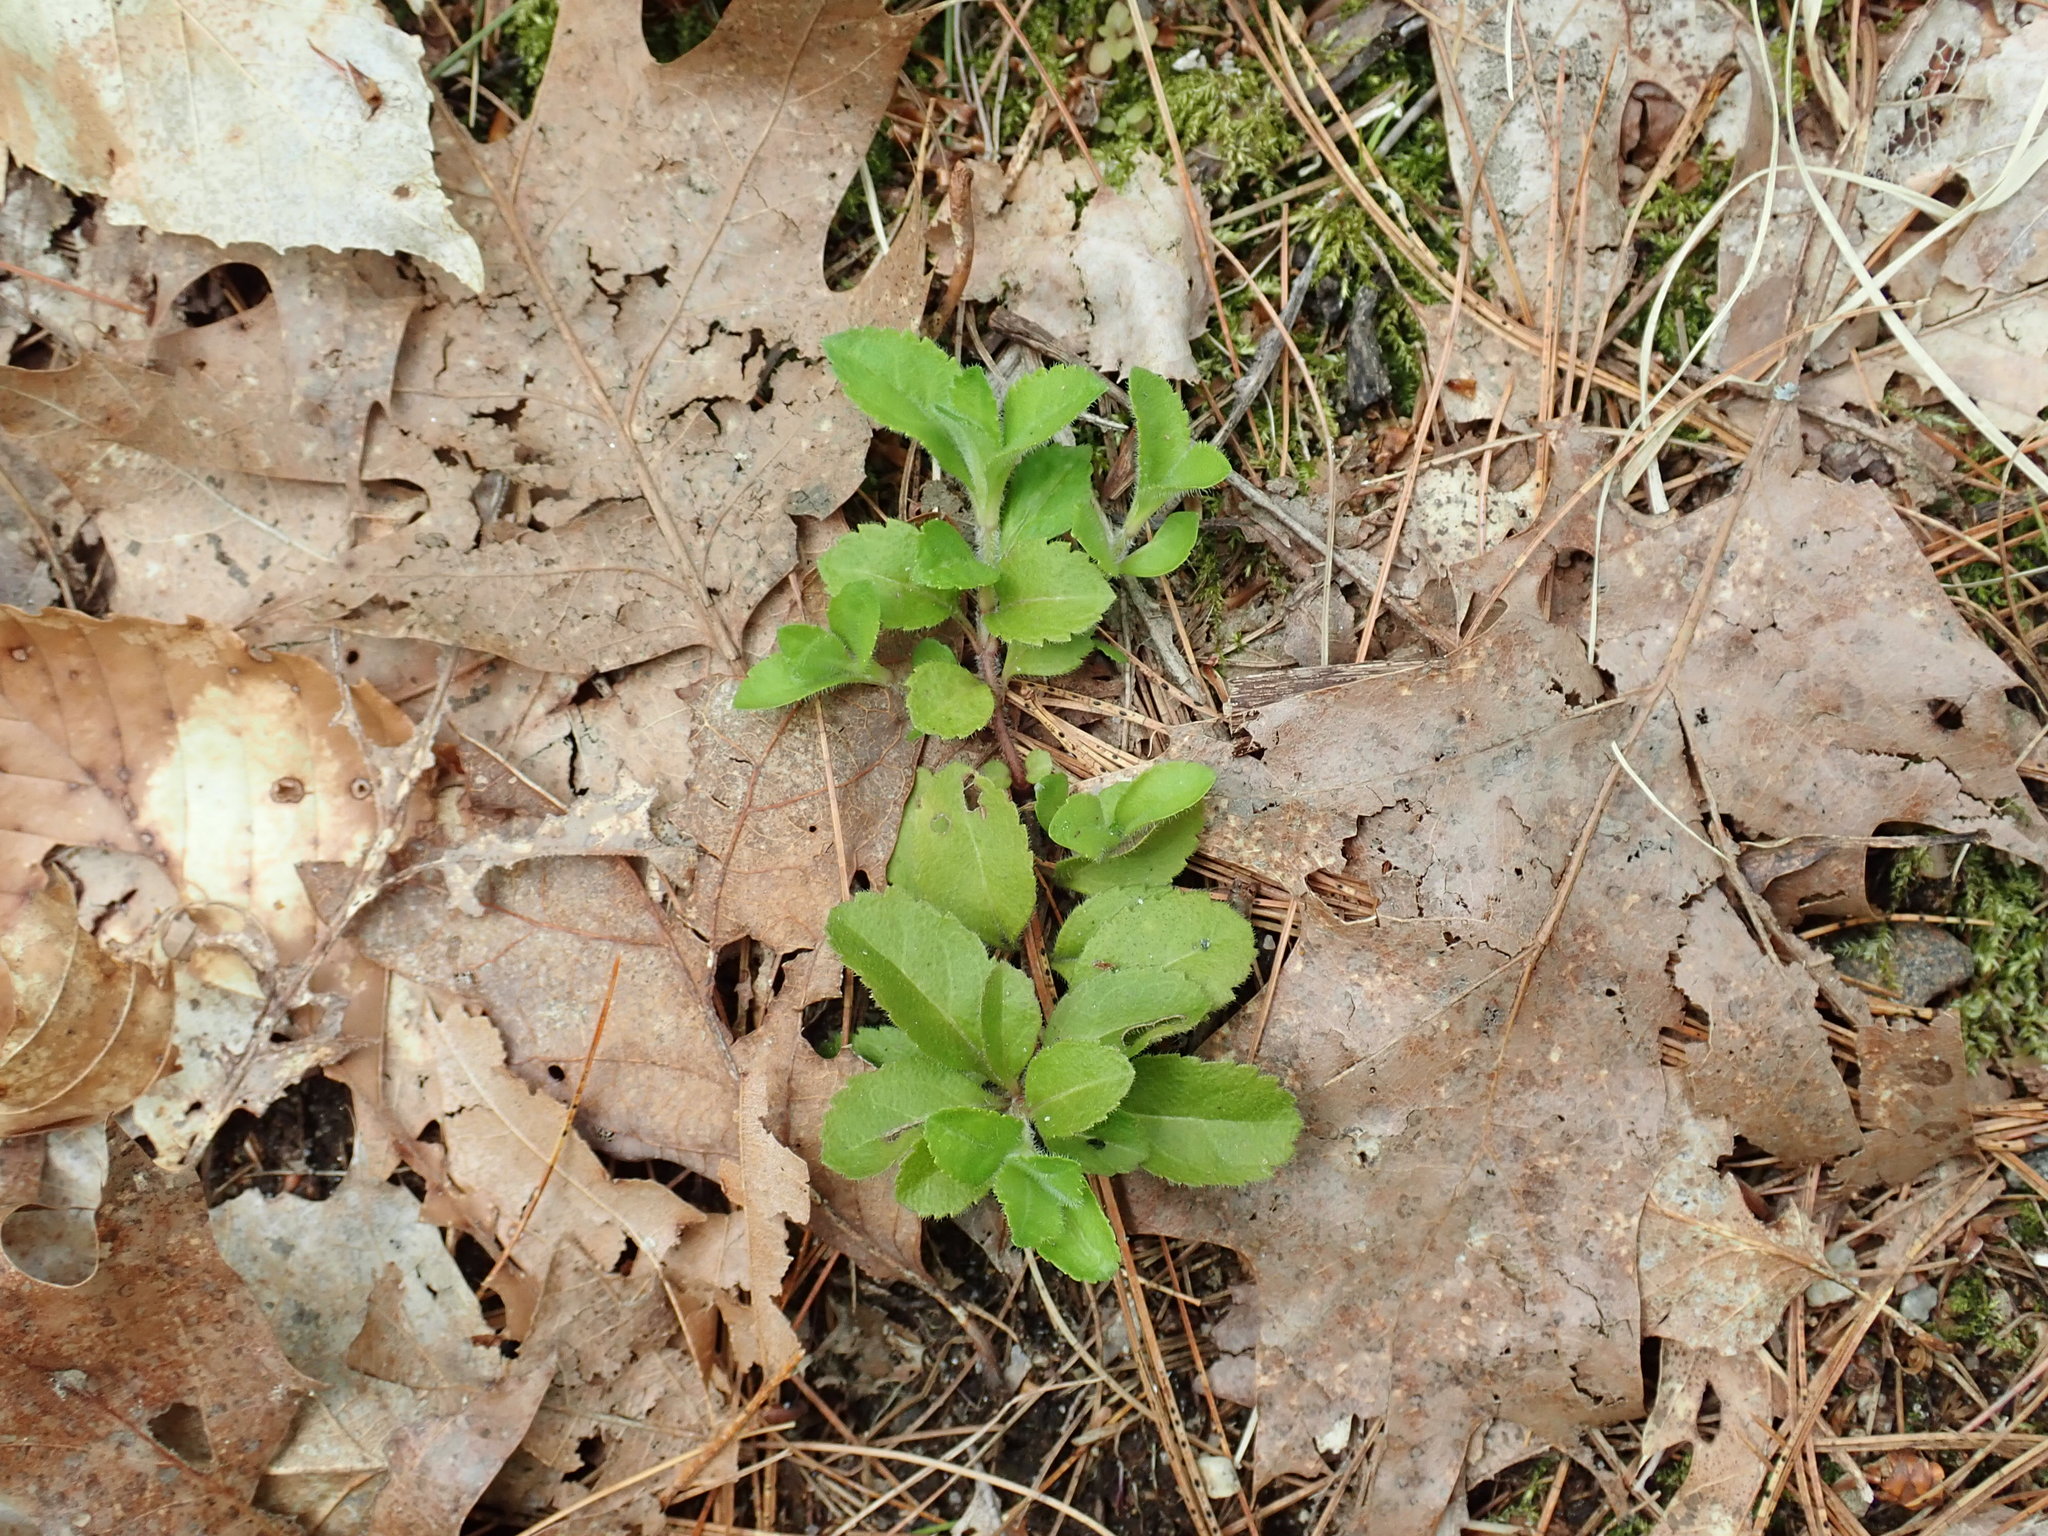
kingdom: Plantae
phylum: Tracheophyta
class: Magnoliopsida
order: Lamiales
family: Plantaginaceae
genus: Veronica
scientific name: Veronica officinalis
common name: Common speedwell
